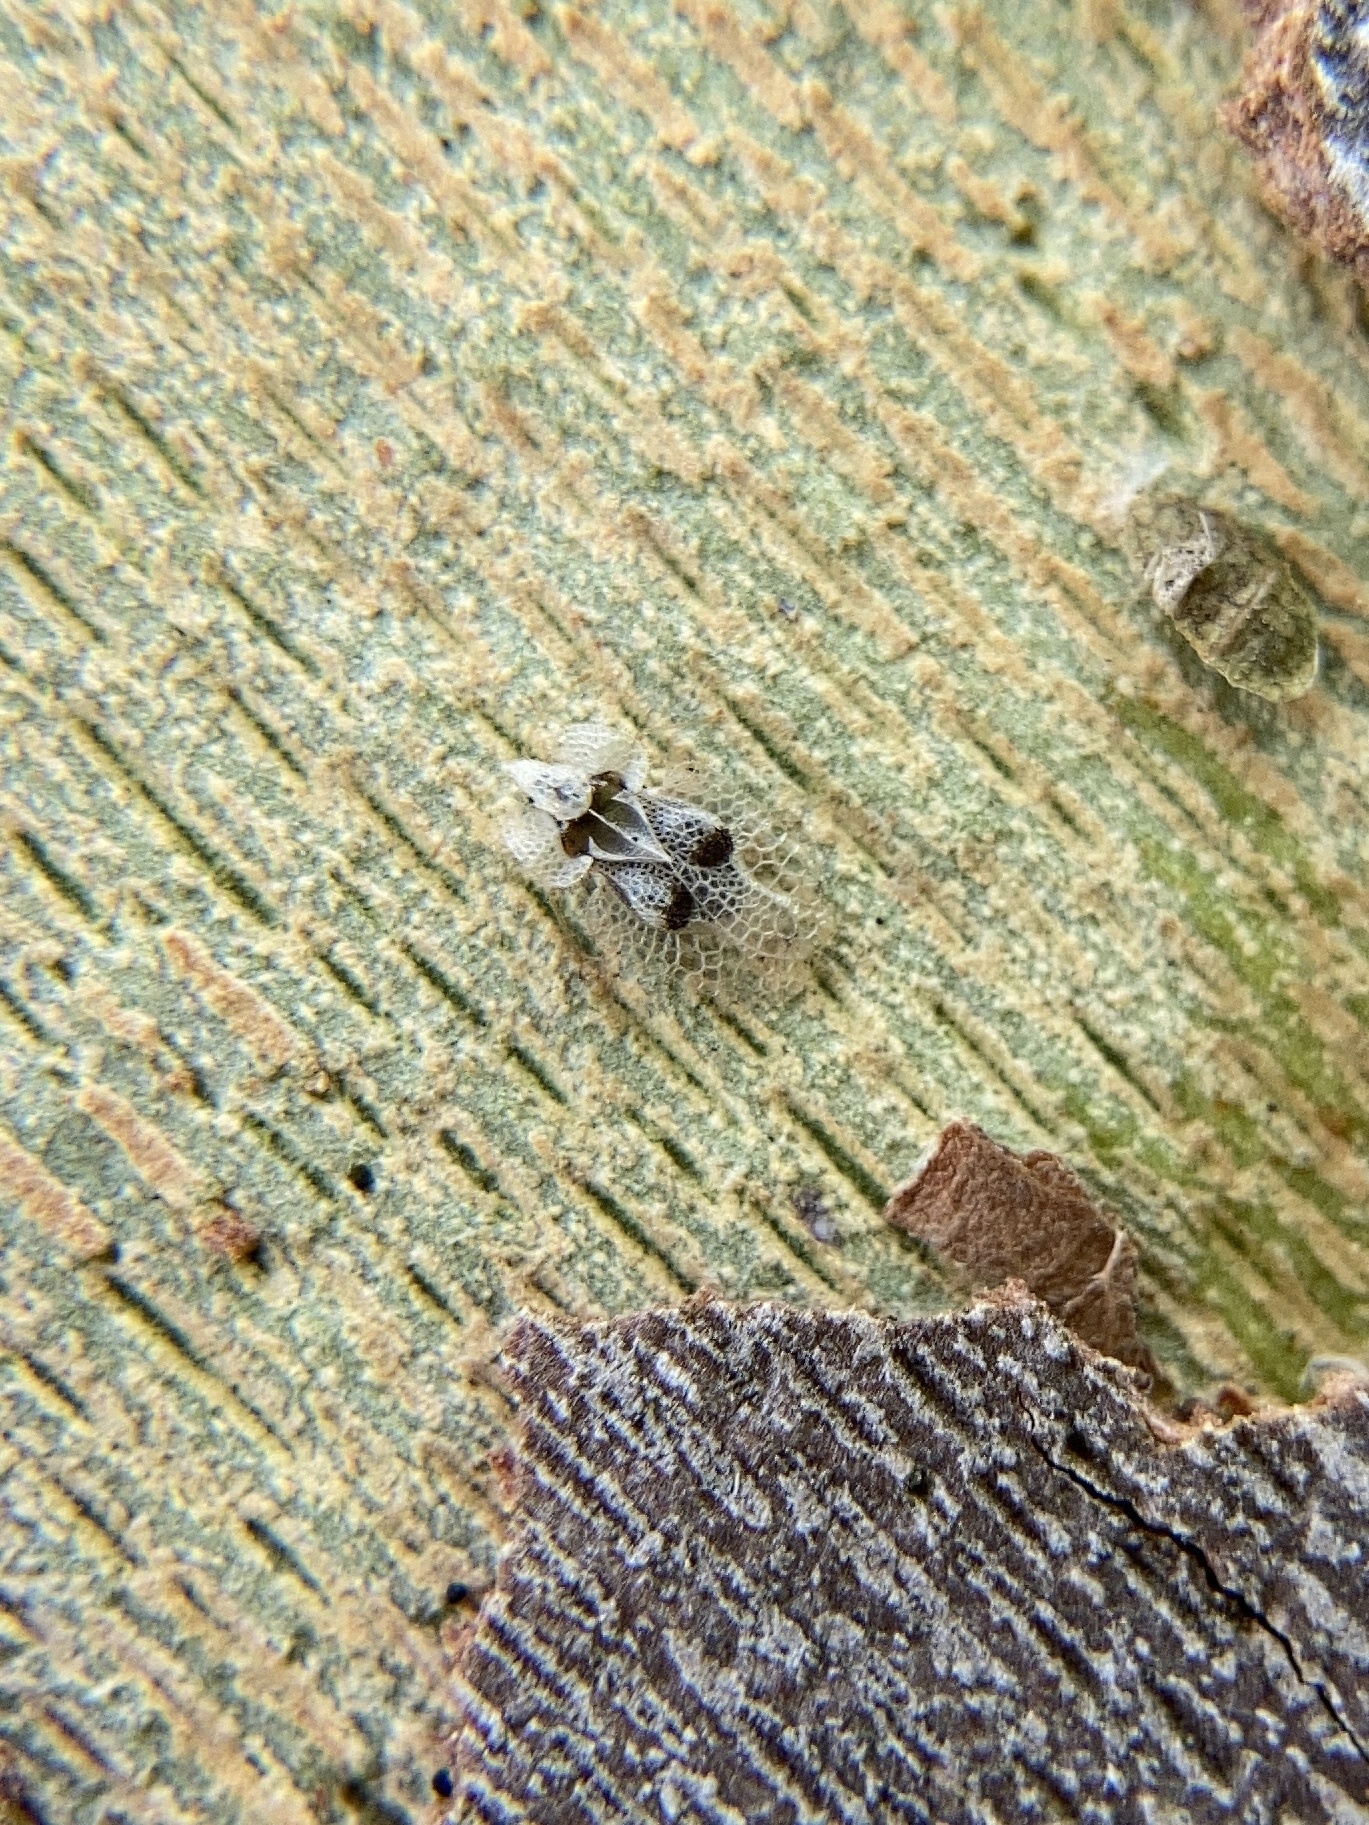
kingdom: Animalia
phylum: Arthropoda
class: Insecta
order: Hemiptera
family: Tingidae
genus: Corythucha
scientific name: Corythucha ciliata
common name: Sycamore lace bug
